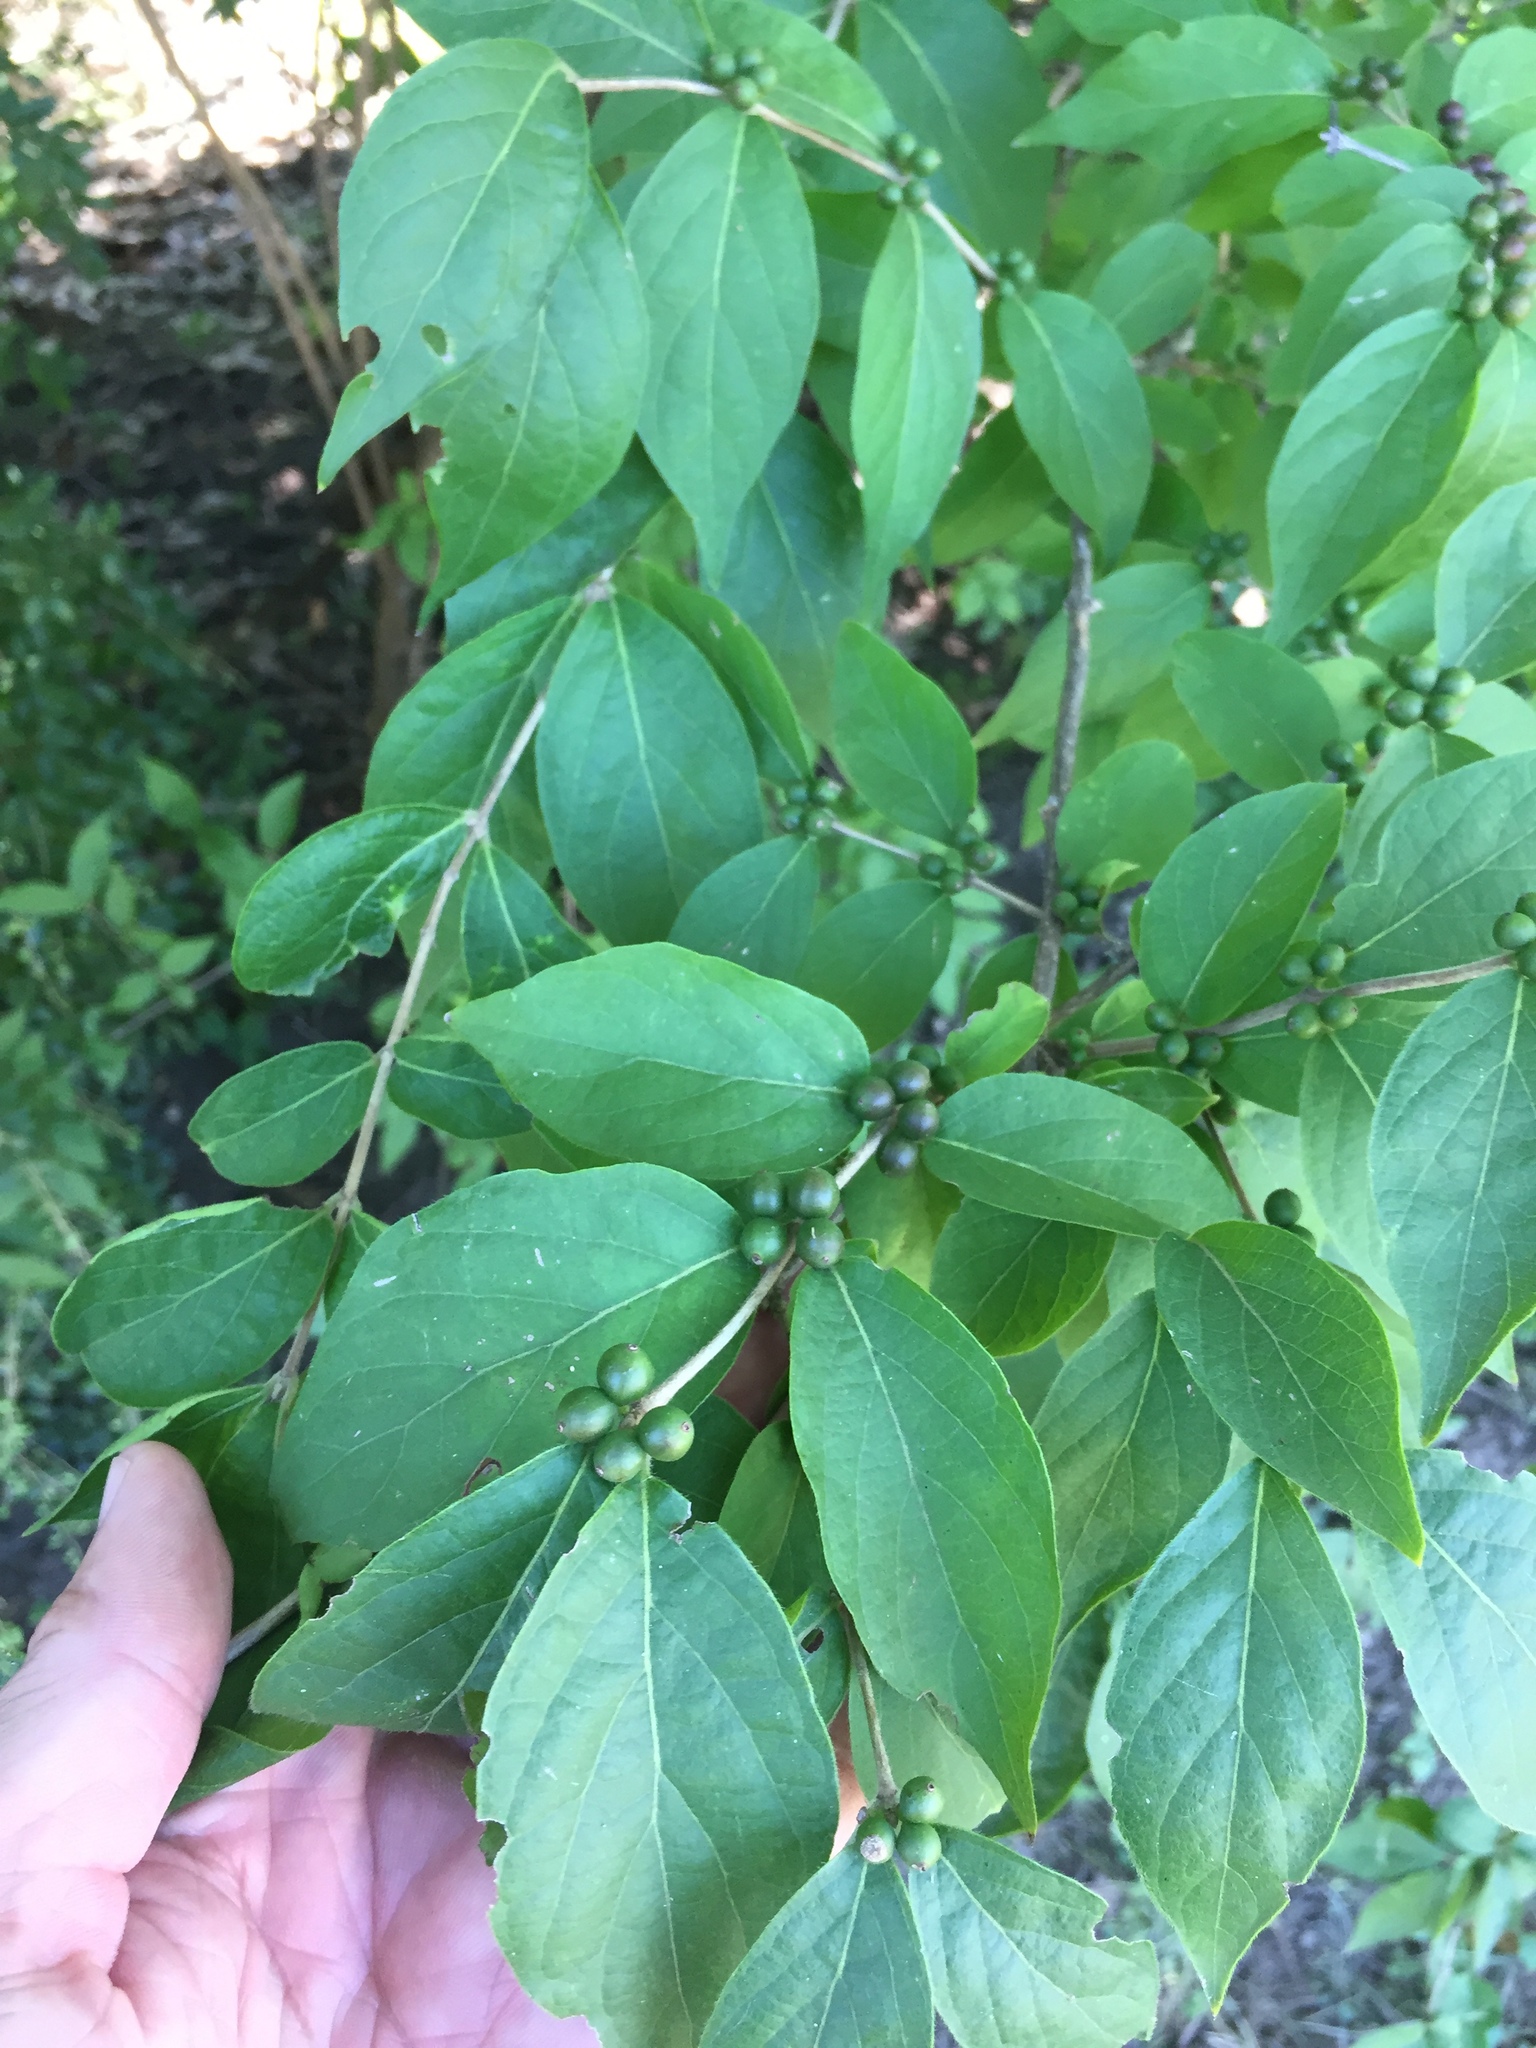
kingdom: Plantae
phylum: Tracheophyta
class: Magnoliopsida
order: Dipsacales
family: Caprifoliaceae
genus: Lonicera
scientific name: Lonicera maackii
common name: Amur honeysuckle
